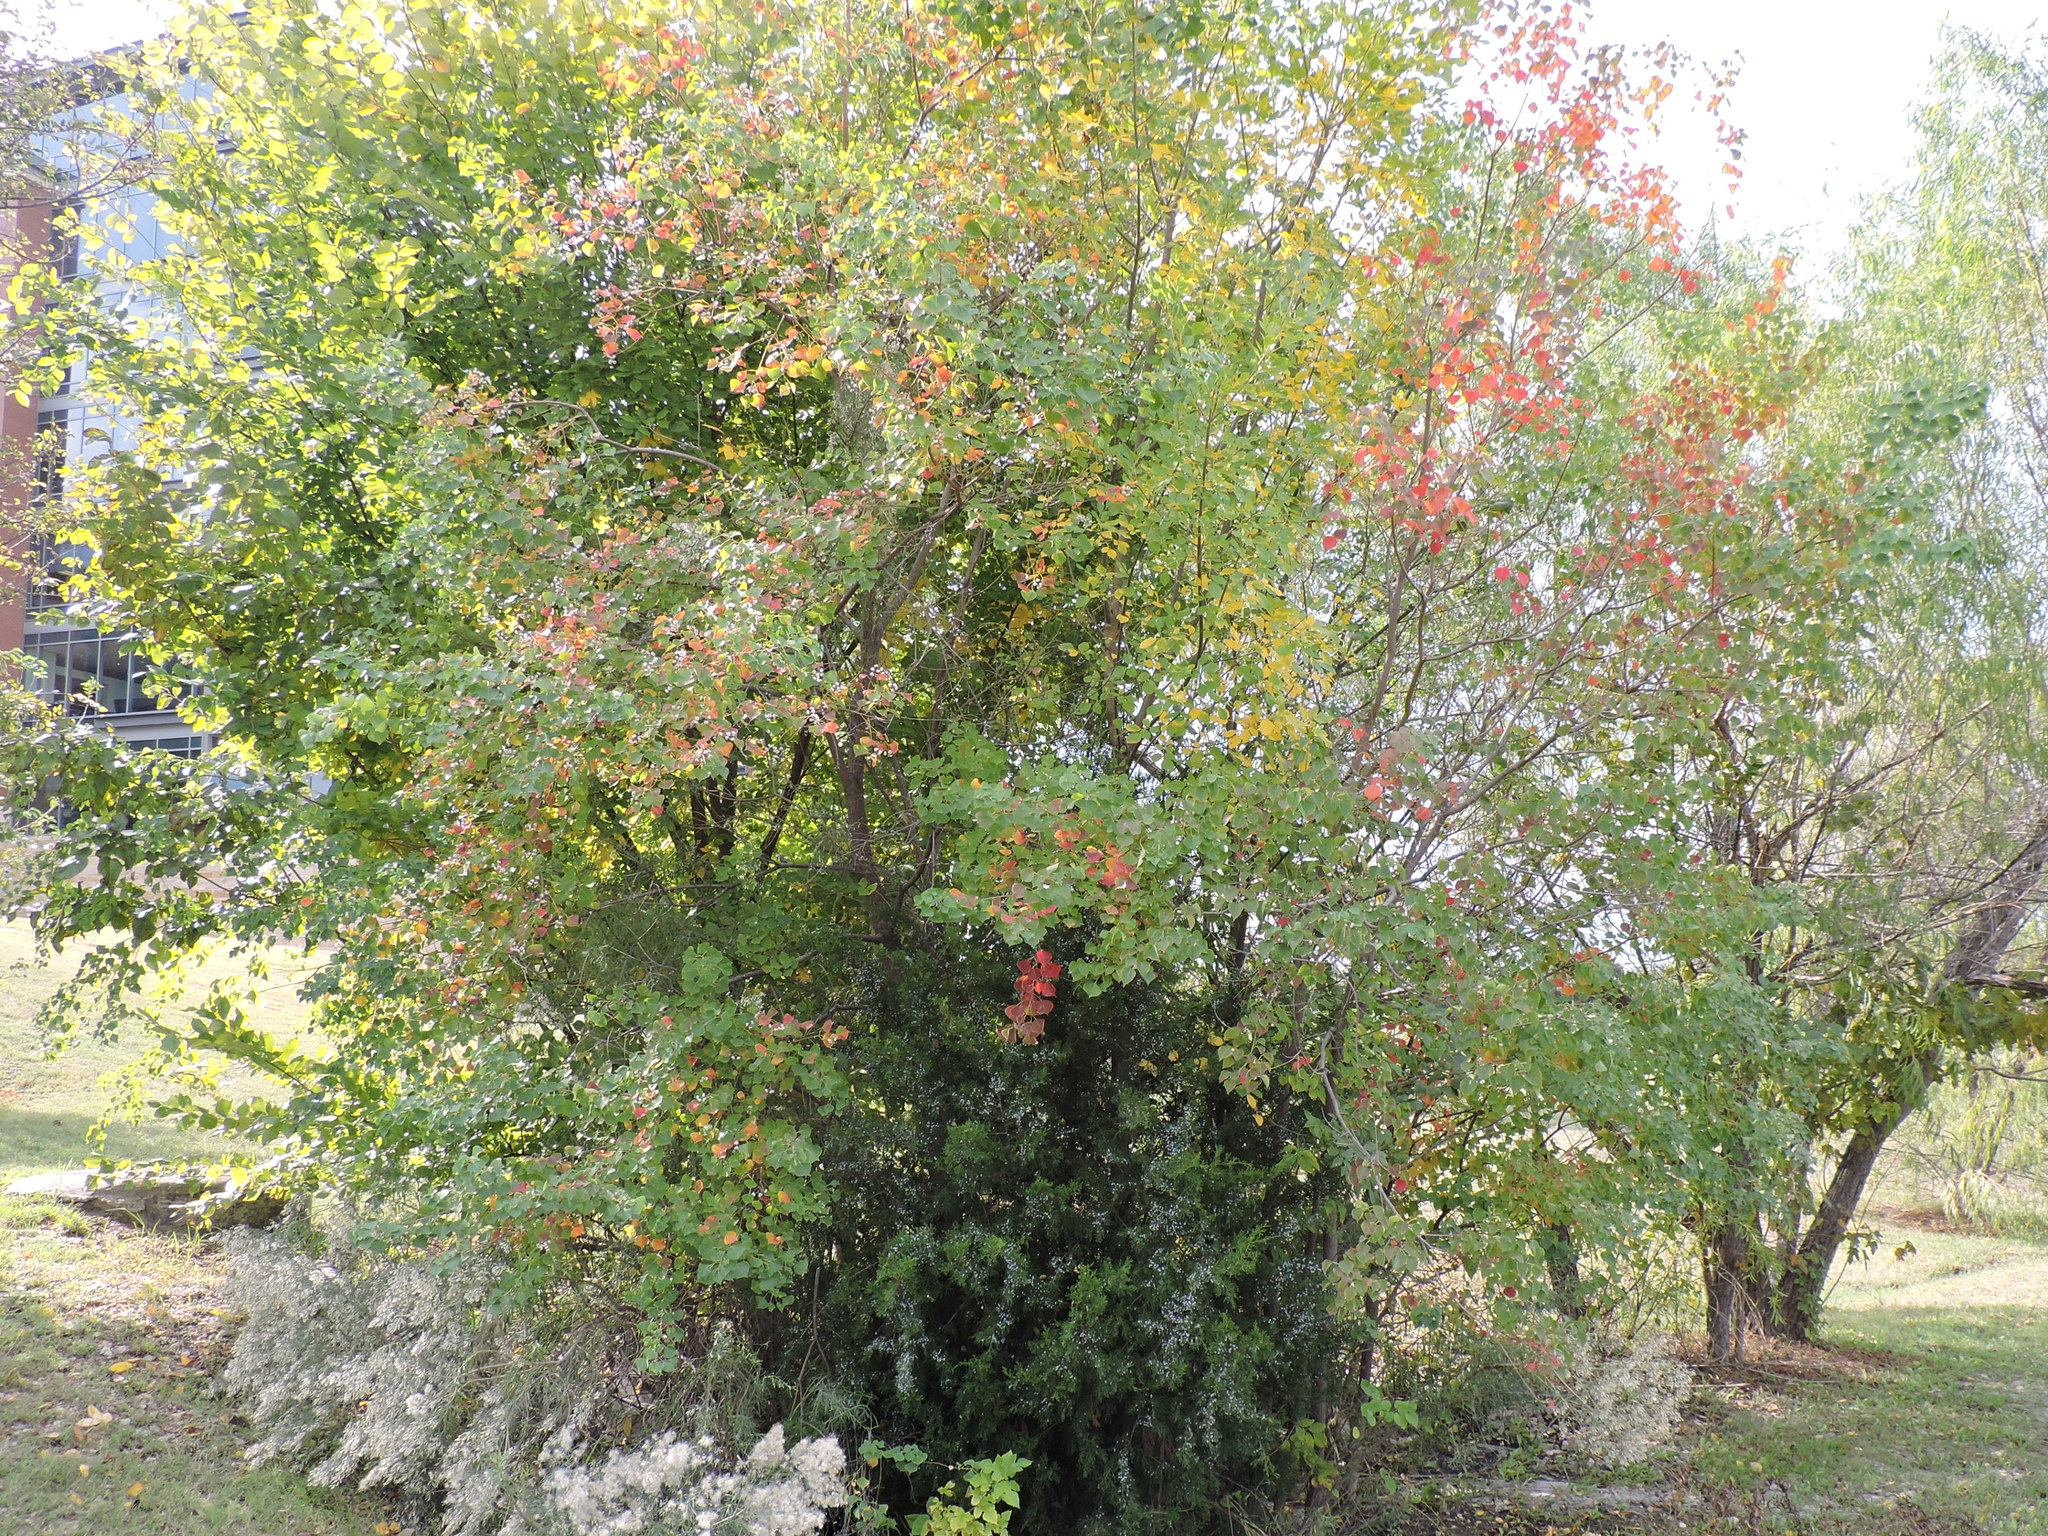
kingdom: Plantae
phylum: Tracheophyta
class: Magnoliopsida
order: Malpighiales
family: Euphorbiaceae
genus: Triadica
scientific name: Triadica sebifera
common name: Chinese tallow
